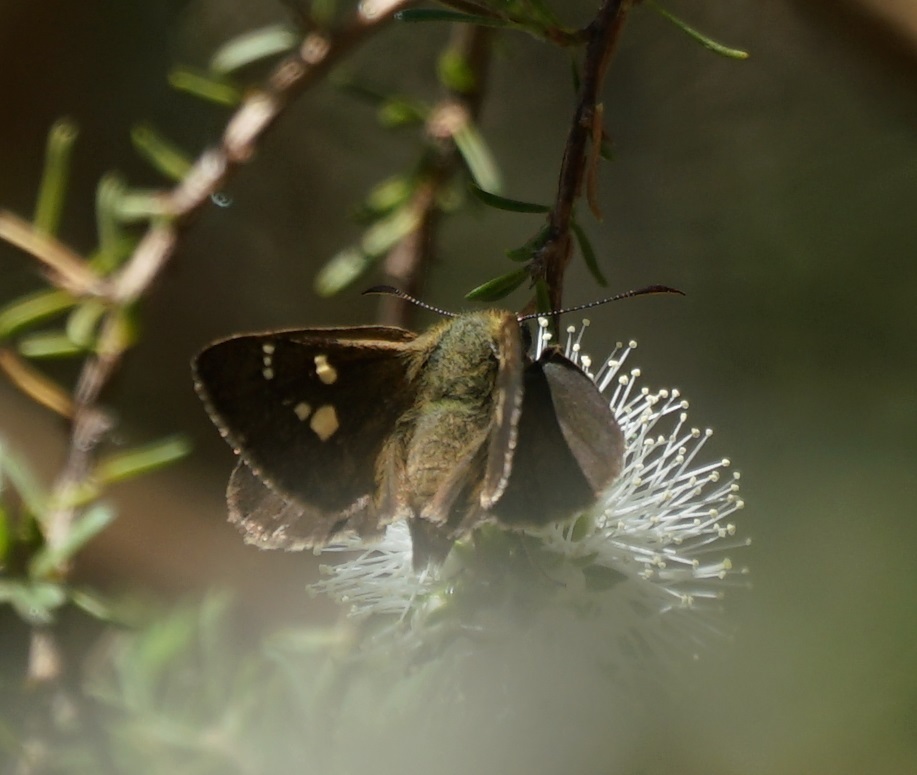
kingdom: Animalia
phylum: Arthropoda
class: Insecta
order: Lepidoptera
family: Hesperiidae
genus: Toxidia
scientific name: Toxidia
